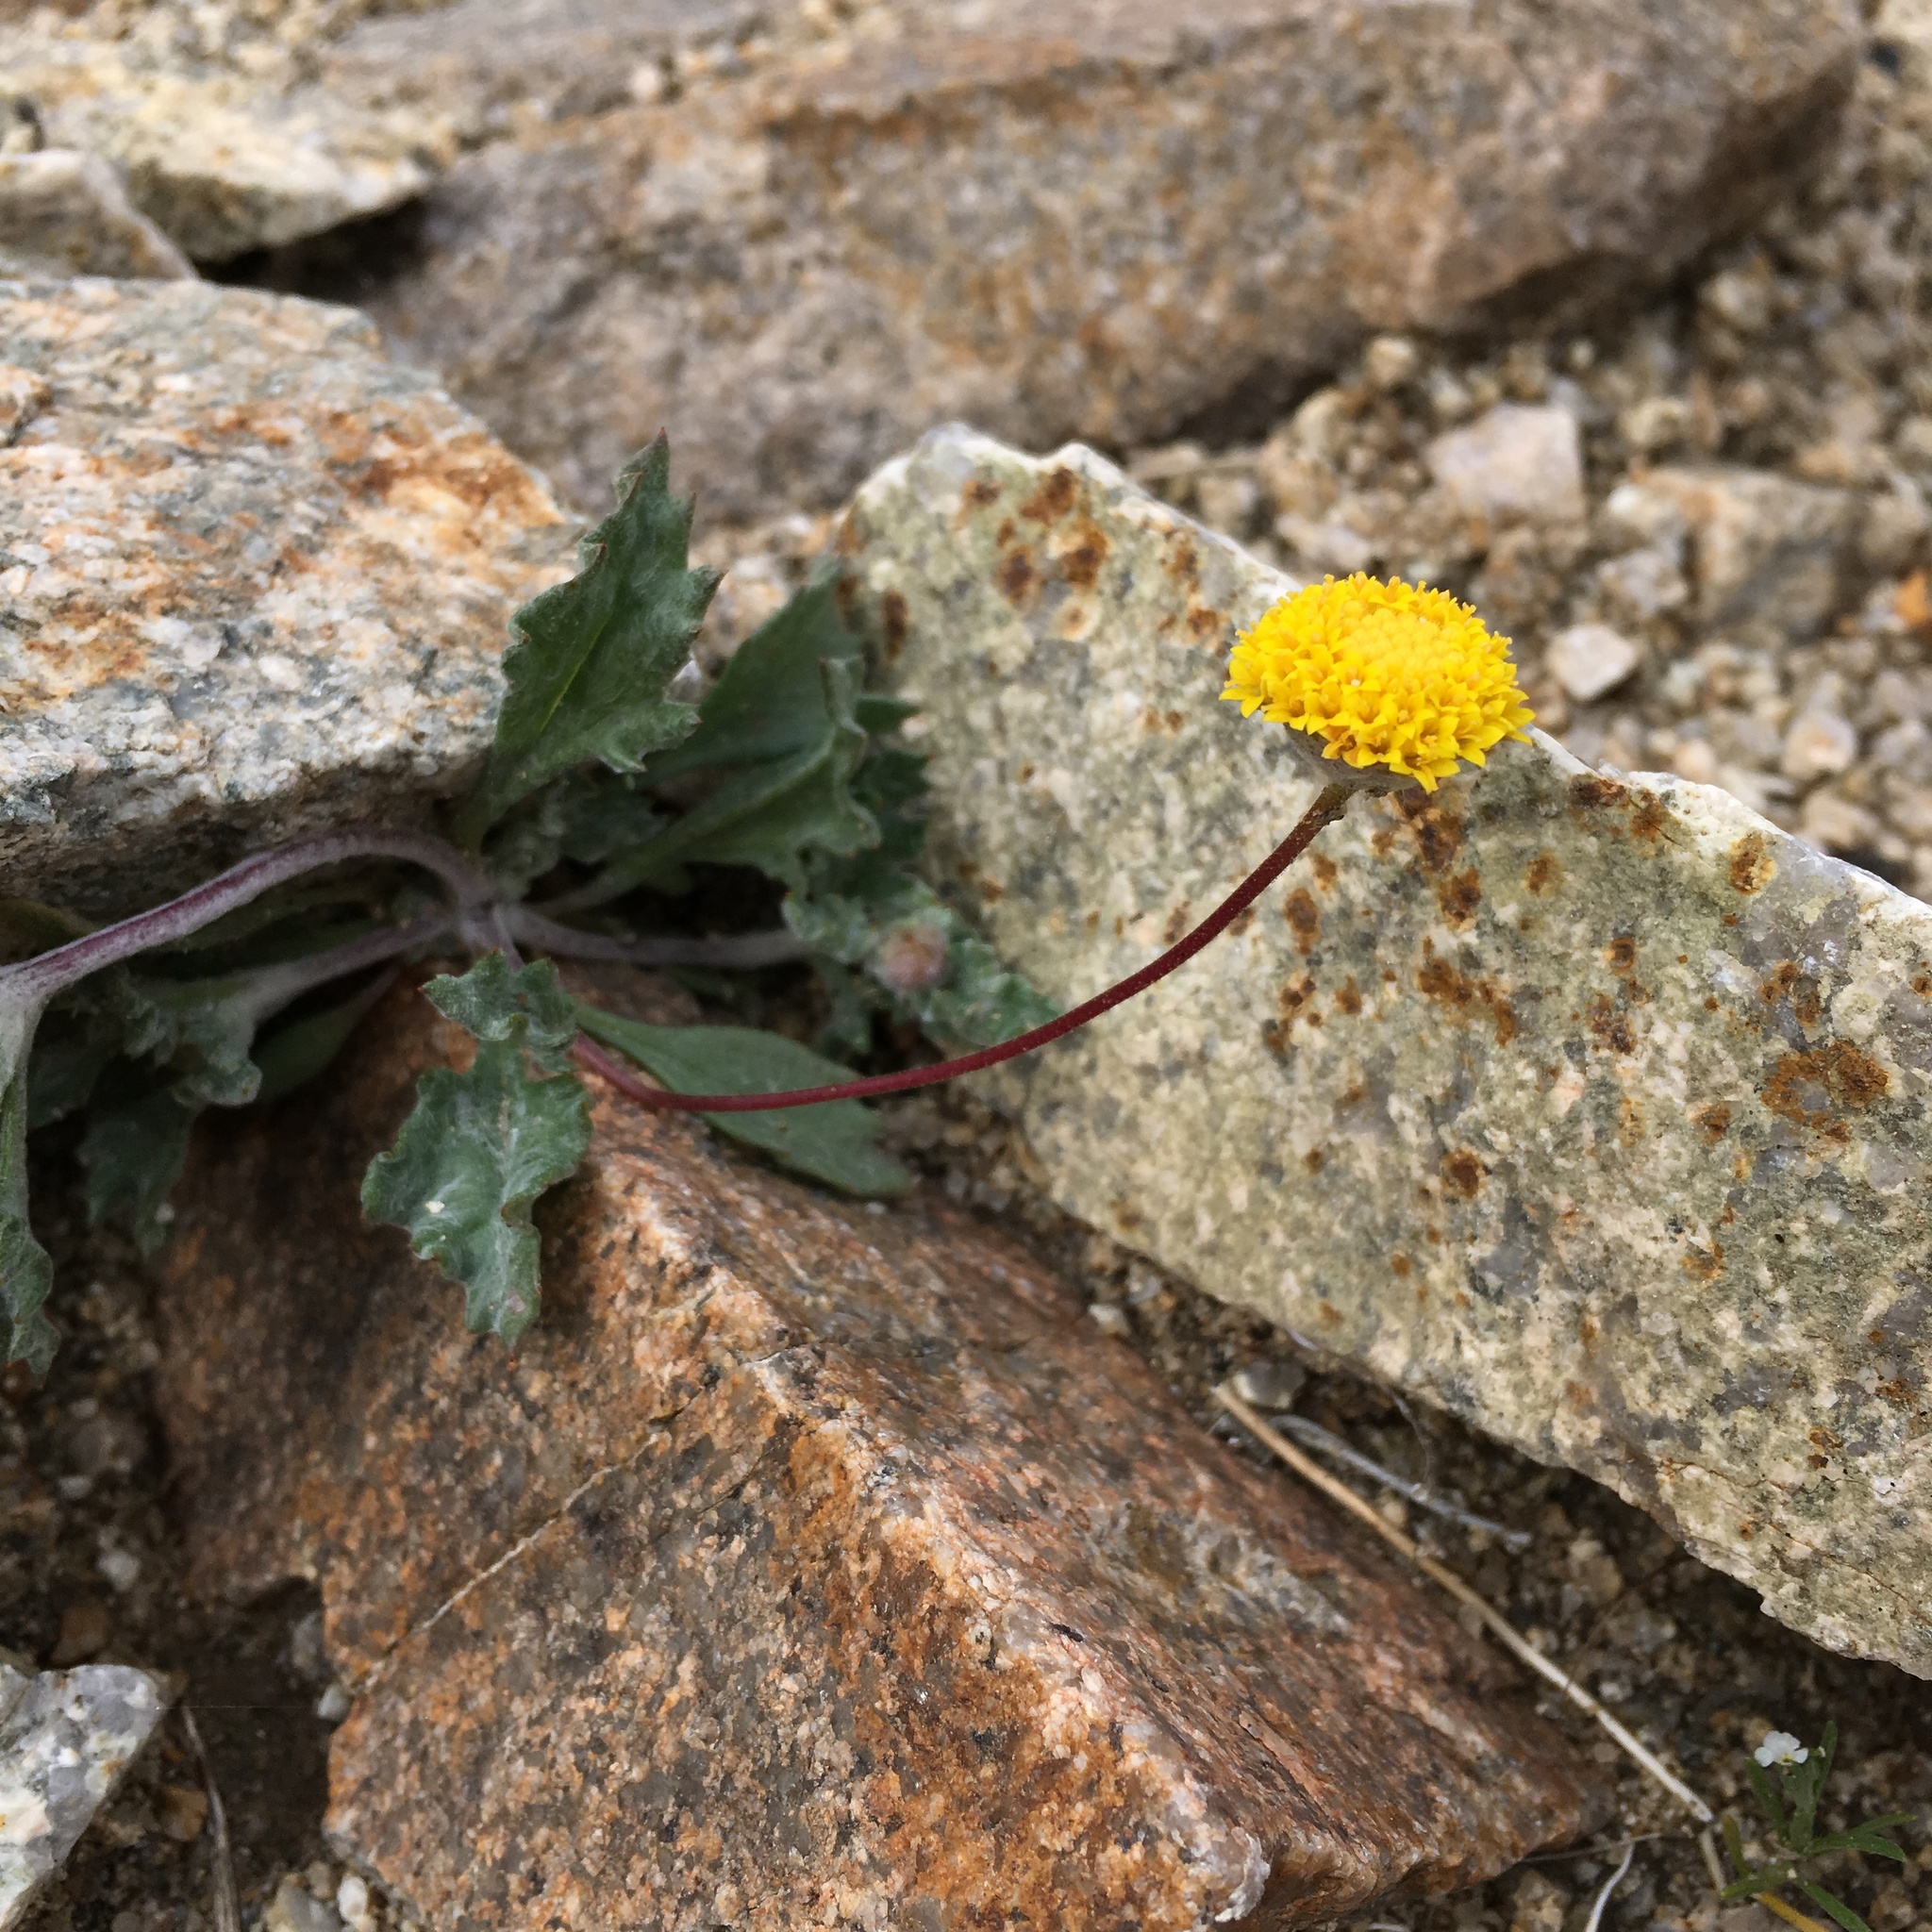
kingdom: Plantae
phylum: Tracheophyta
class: Magnoliopsida
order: Asterales
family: Asteraceae
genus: Trichoptilium
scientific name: Trichoptilium incisum
